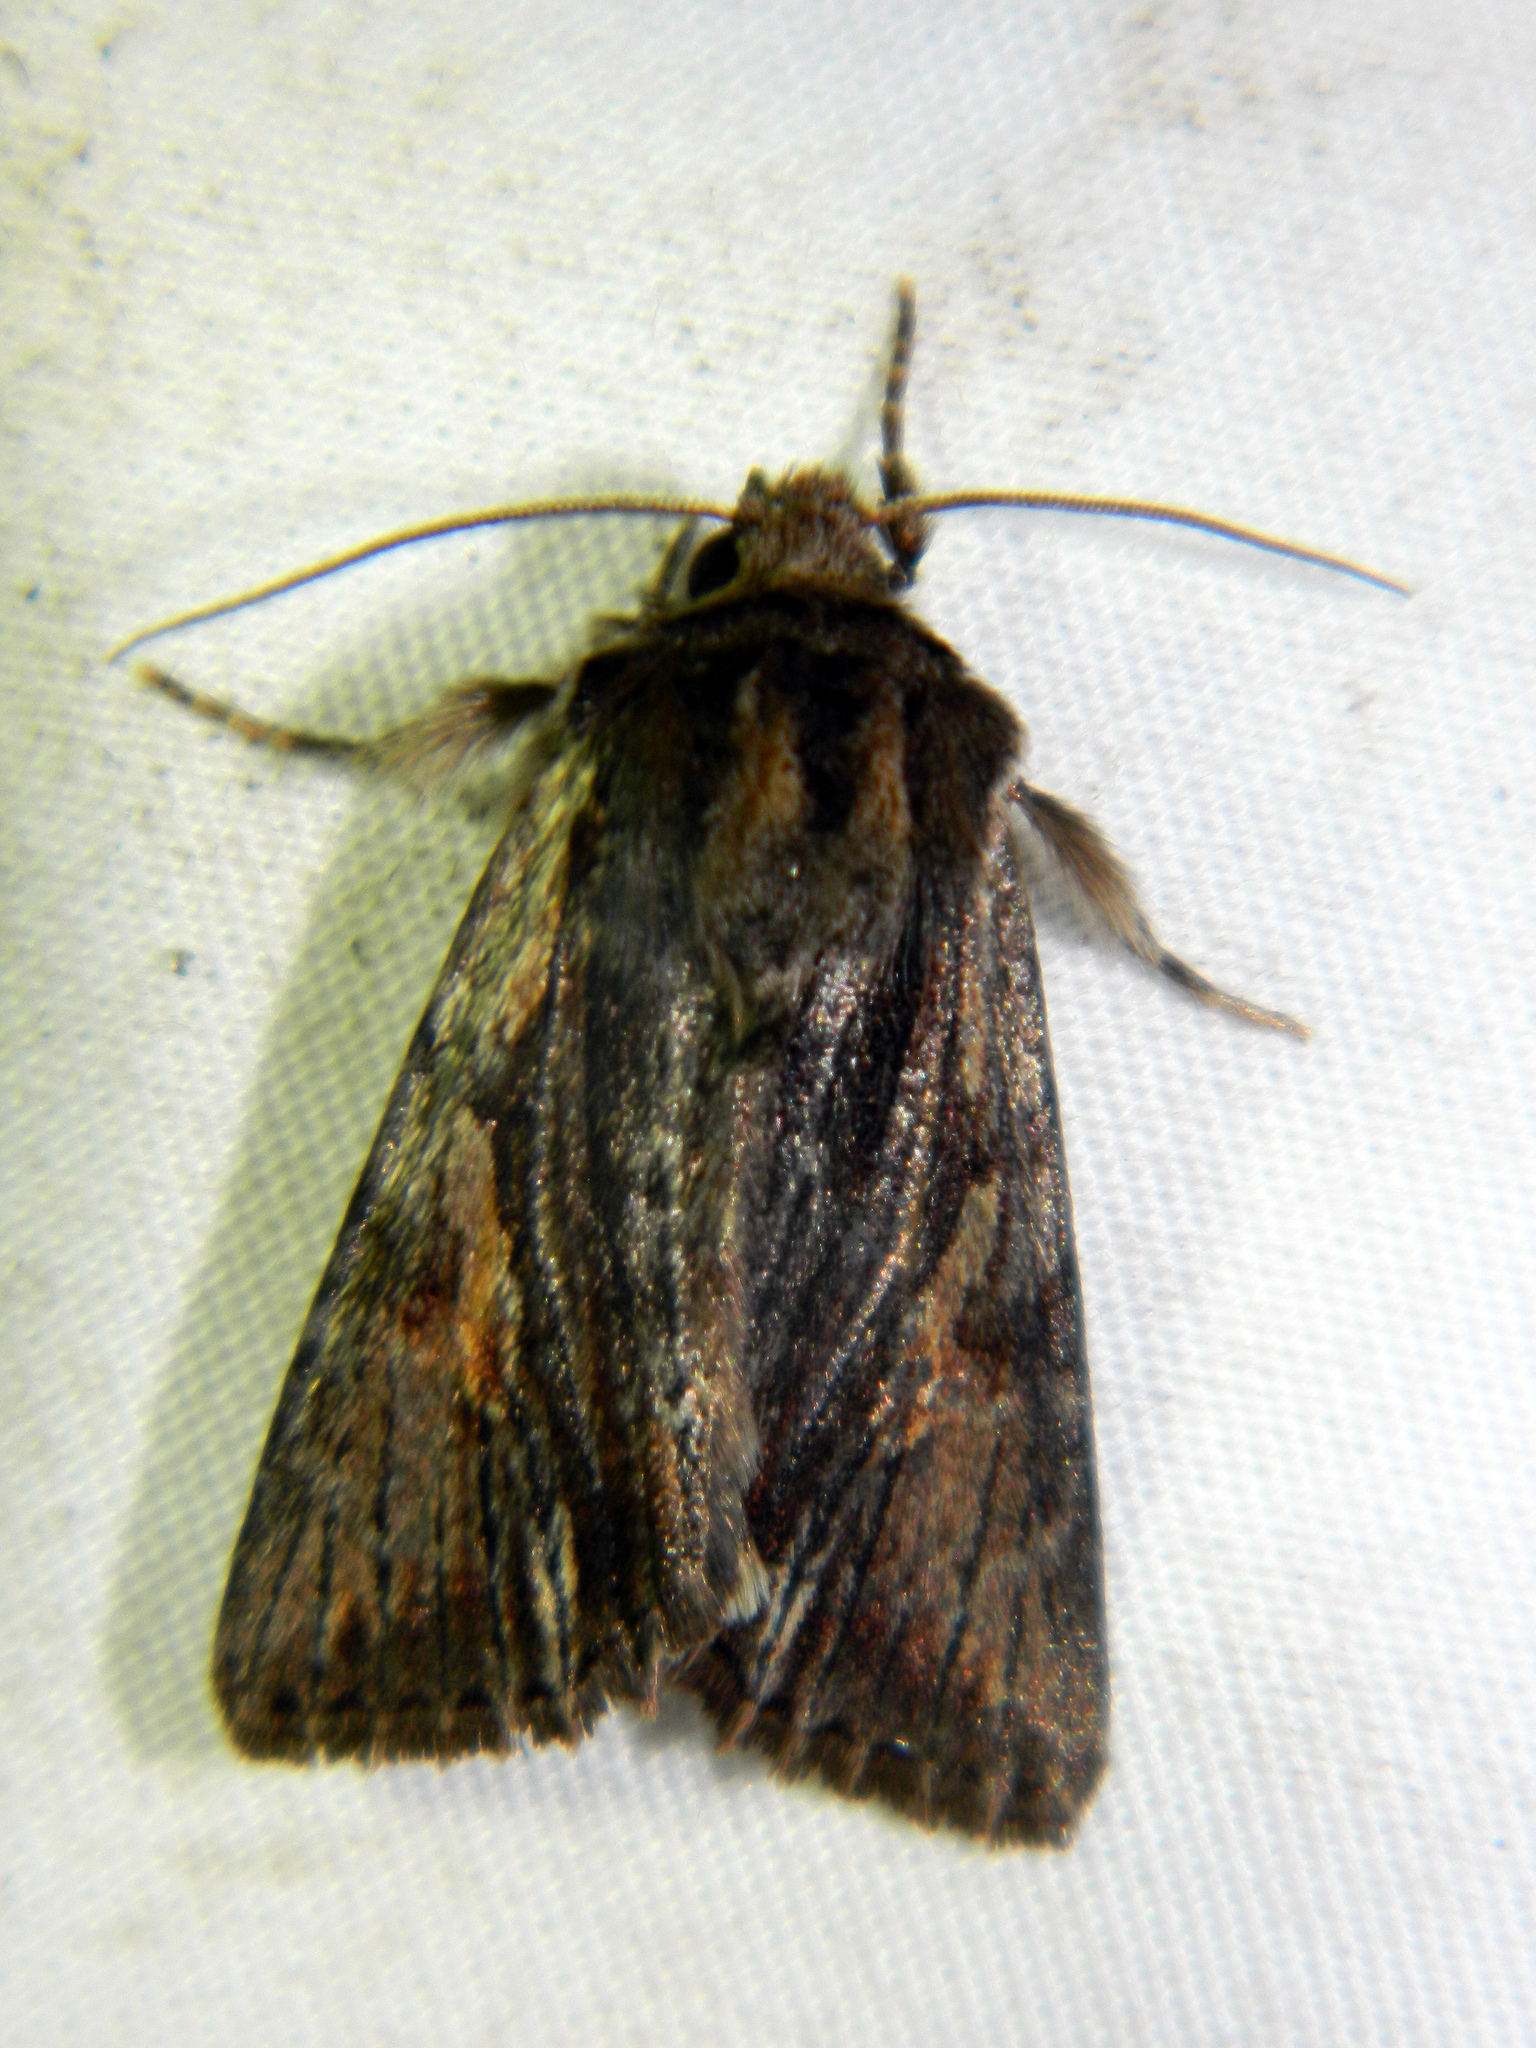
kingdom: Animalia
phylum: Arthropoda
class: Insecta
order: Lepidoptera
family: Noctuidae
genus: Achatia
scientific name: Achatia evicta
